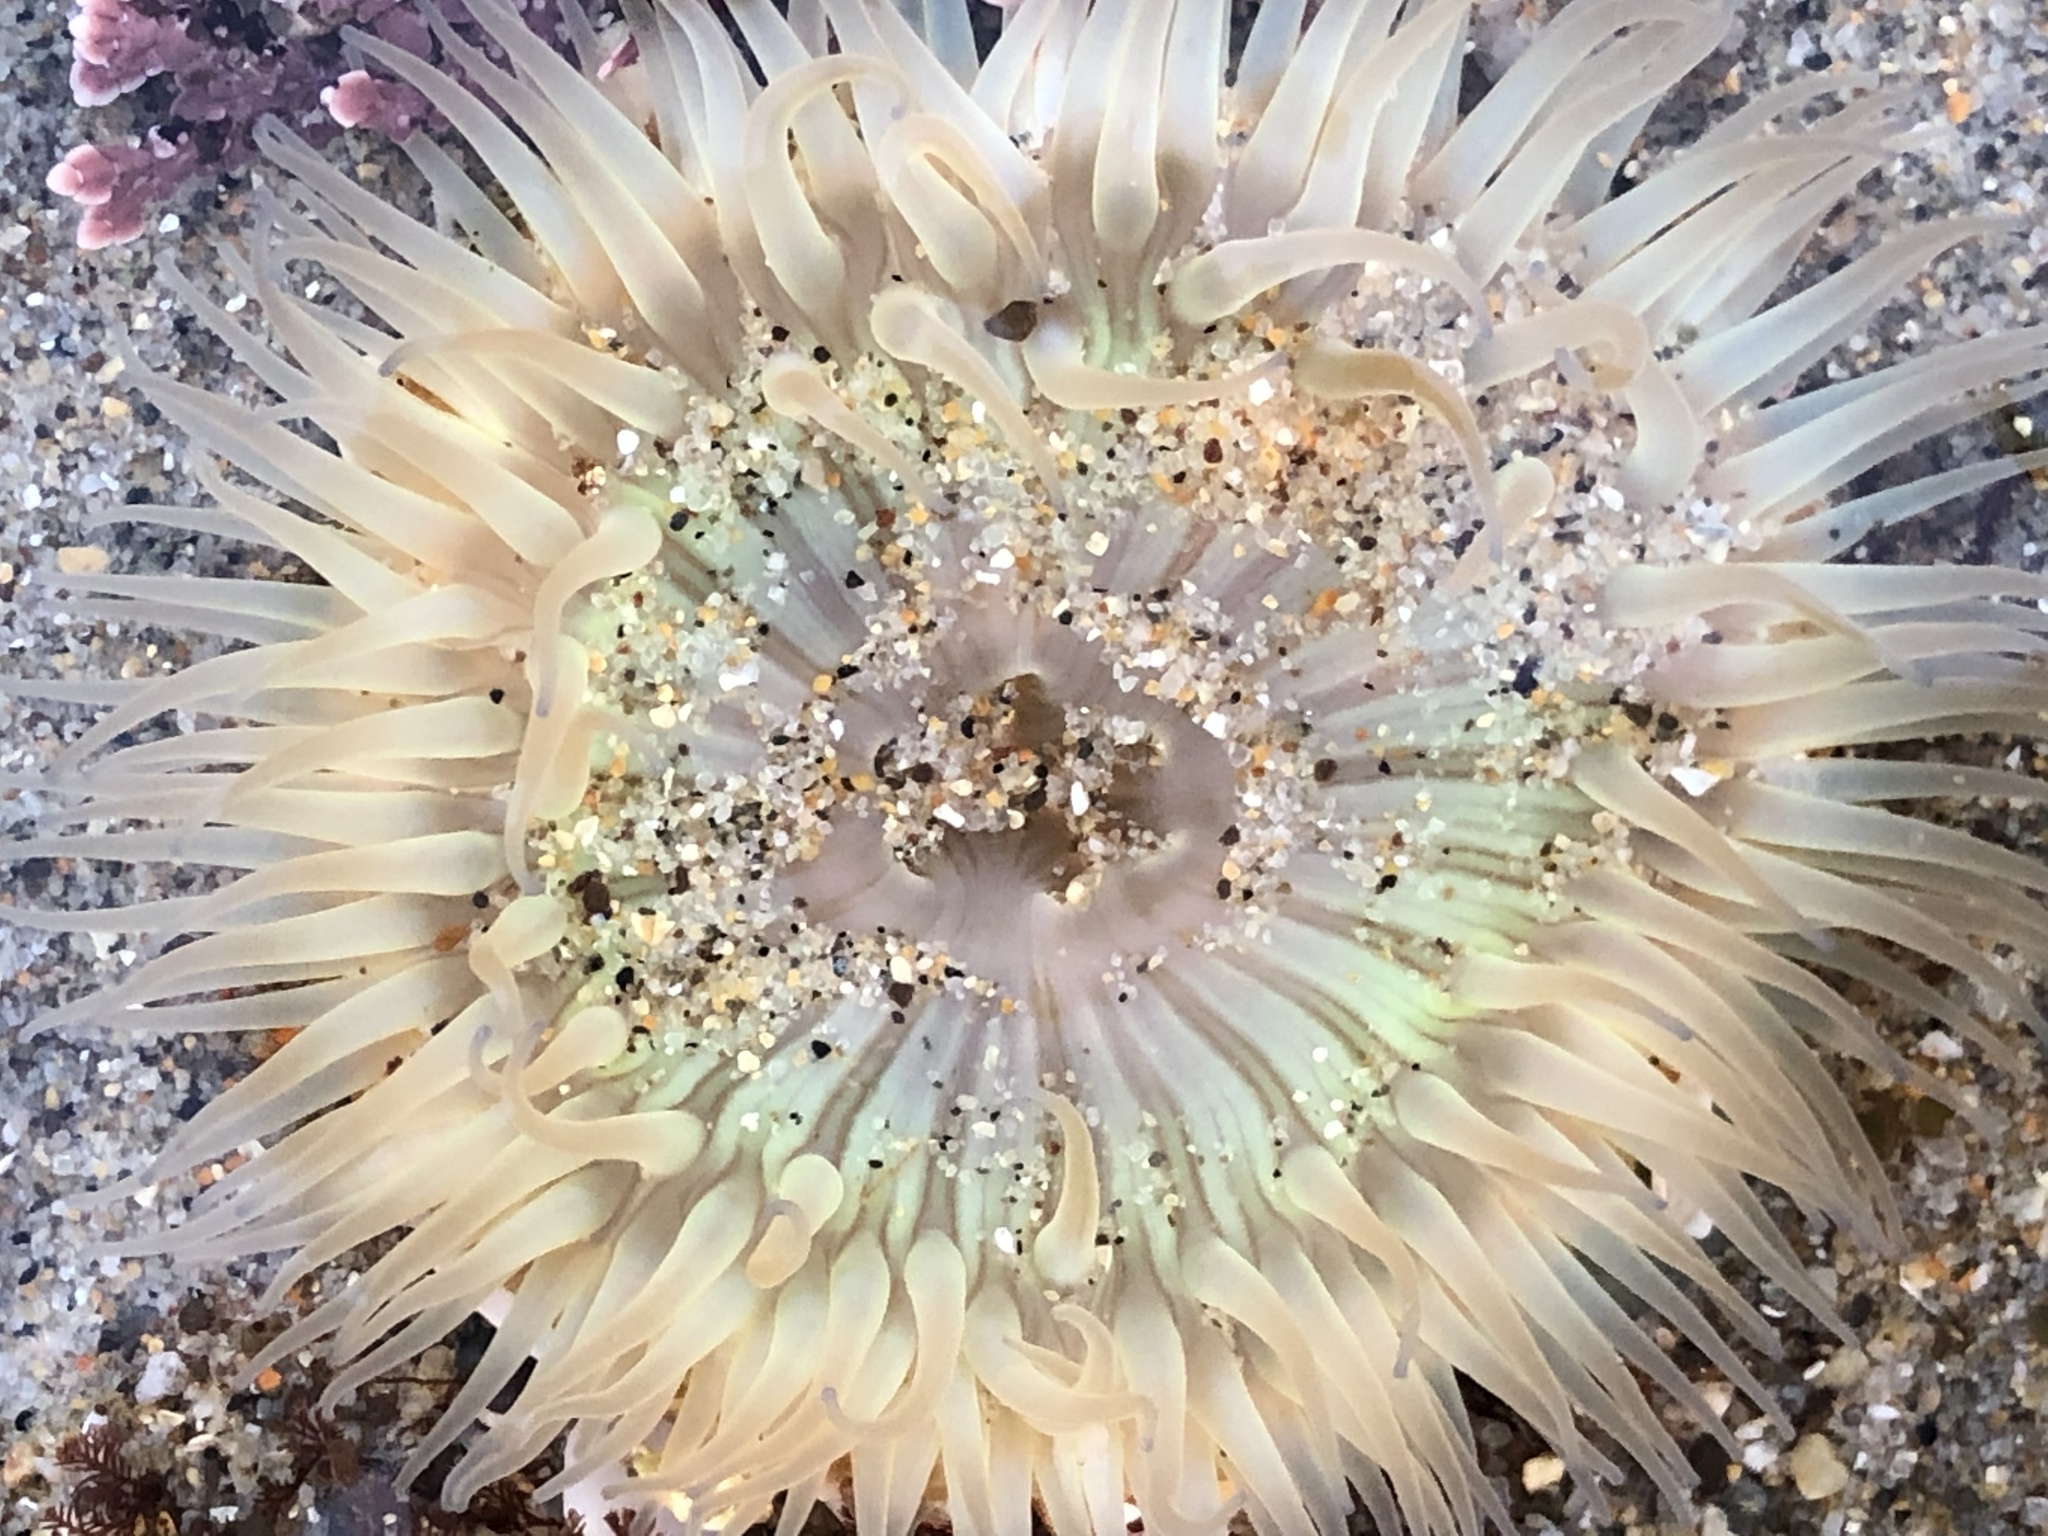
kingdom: Animalia
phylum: Cnidaria
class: Anthozoa
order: Actiniaria
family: Actiniidae
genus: Anthopleura
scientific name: Anthopleura sola
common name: Sun anemone
